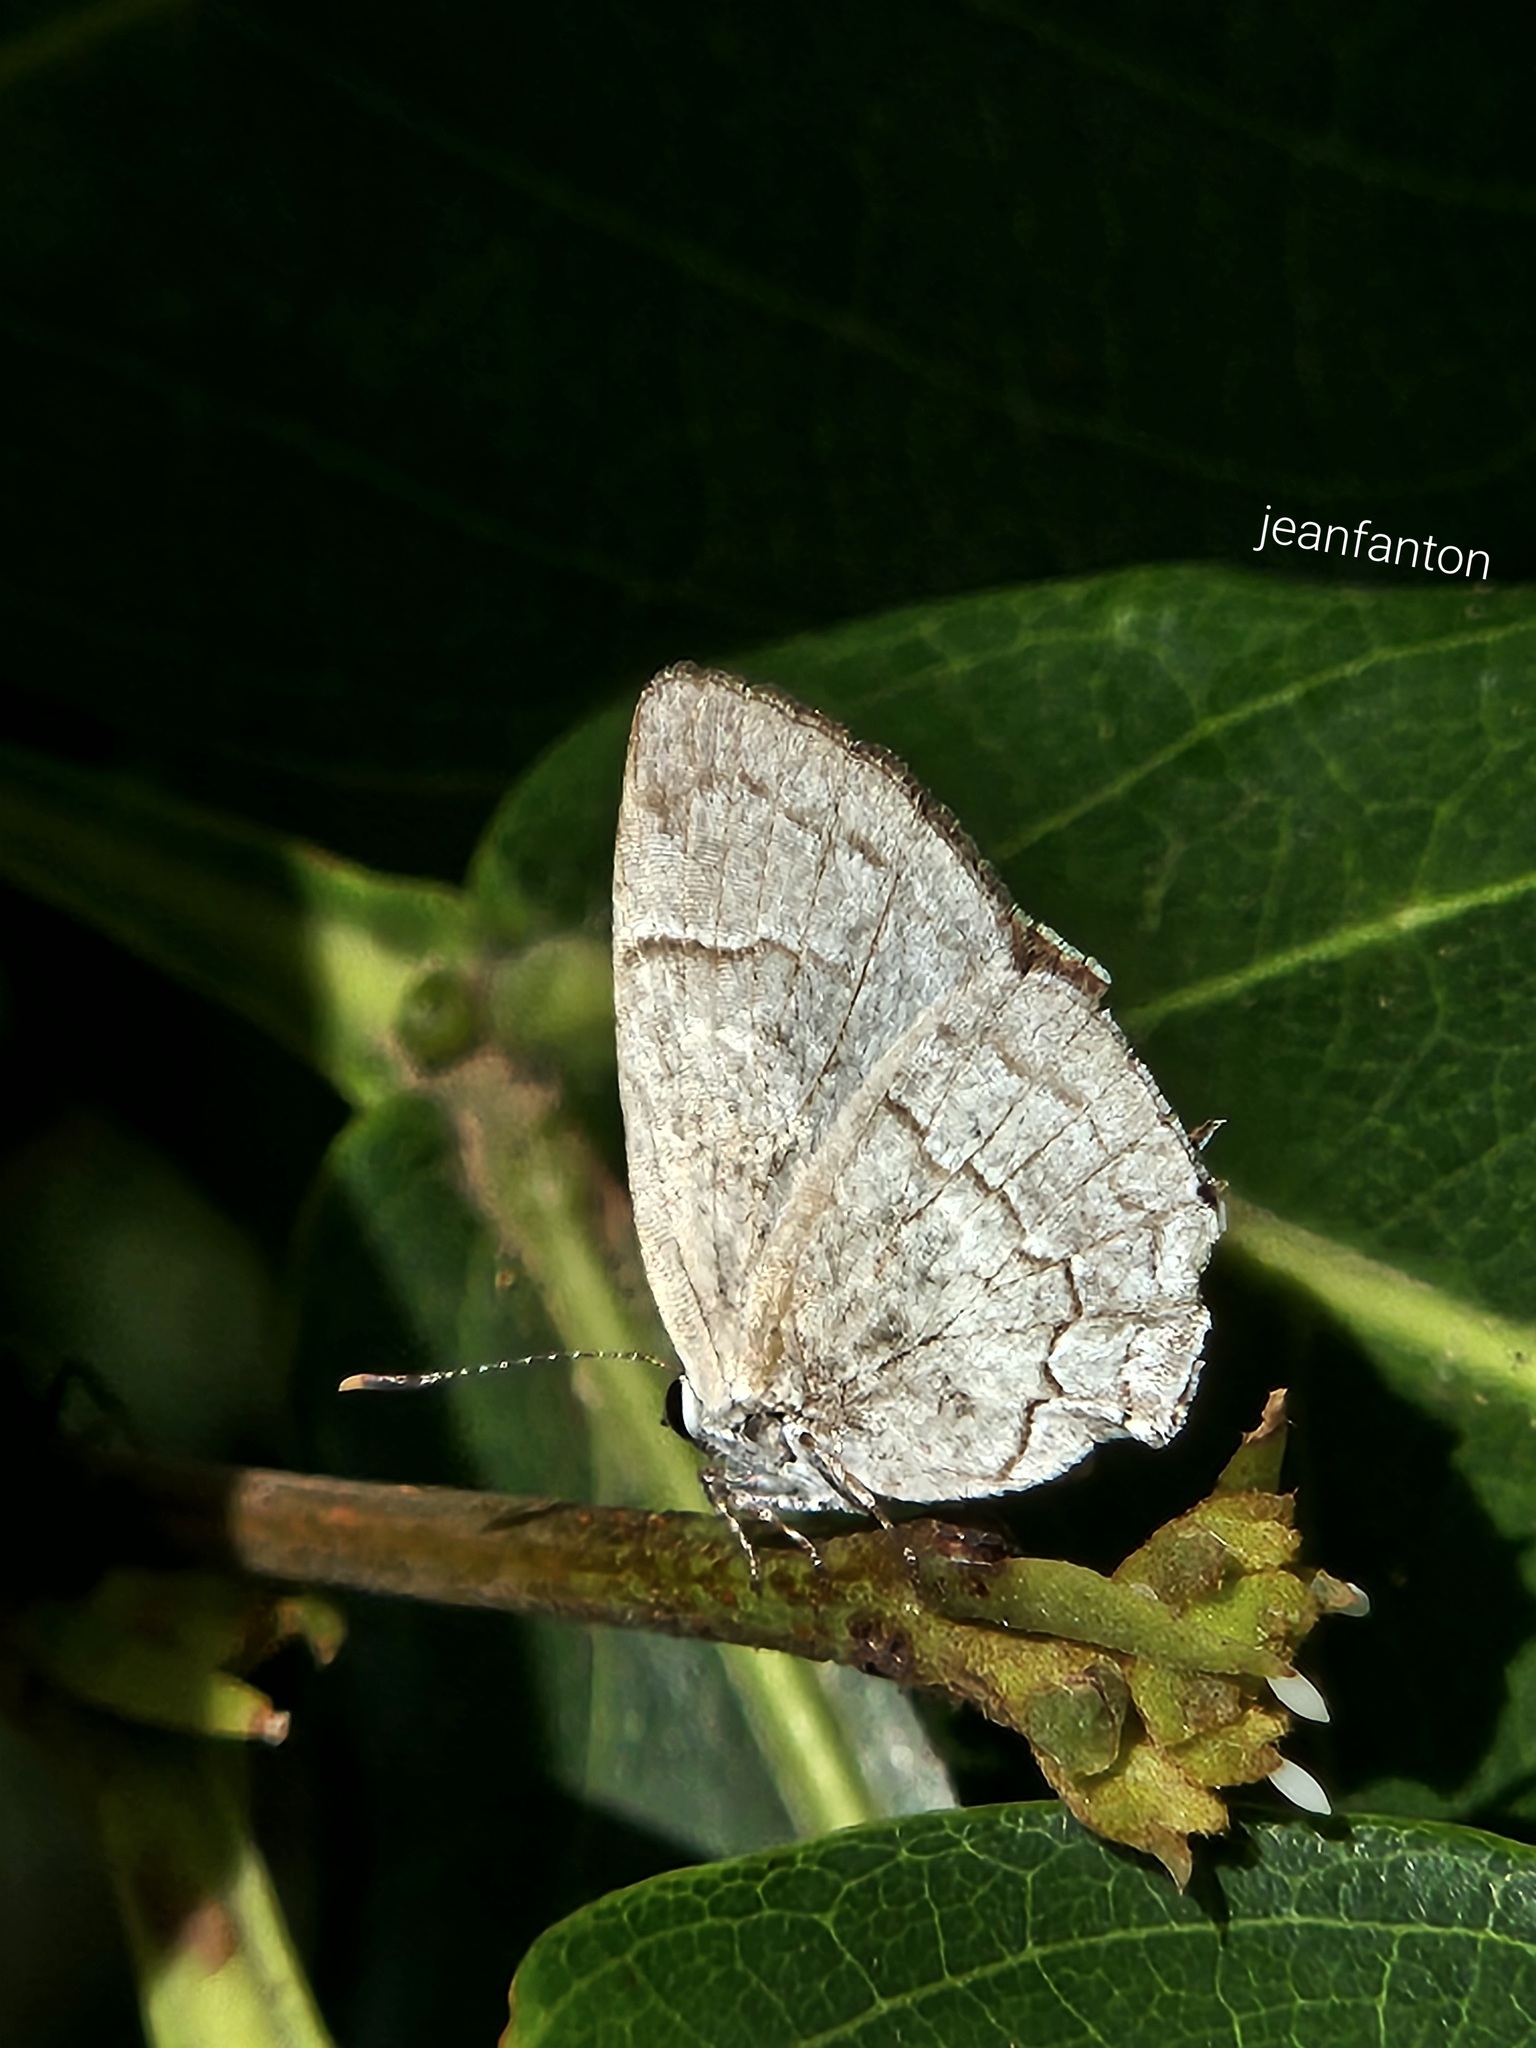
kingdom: Animalia
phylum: Arthropoda
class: Insecta
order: Lepidoptera
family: Lycaenidae
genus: Symbiopsis
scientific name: Symbiopsis lenitas
